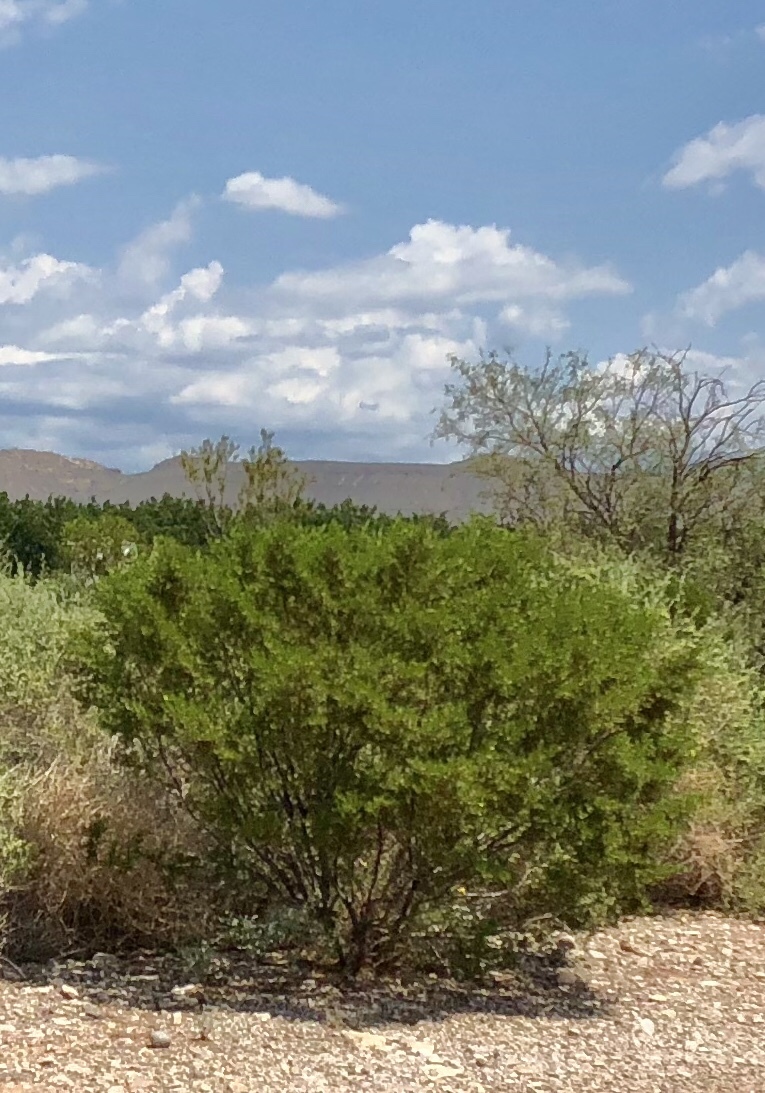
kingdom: Plantae
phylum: Tracheophyta
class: Magnoliopsida
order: Zygophyllales
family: Zygophyllaceae
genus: Larrea
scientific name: Larrea tridentata
